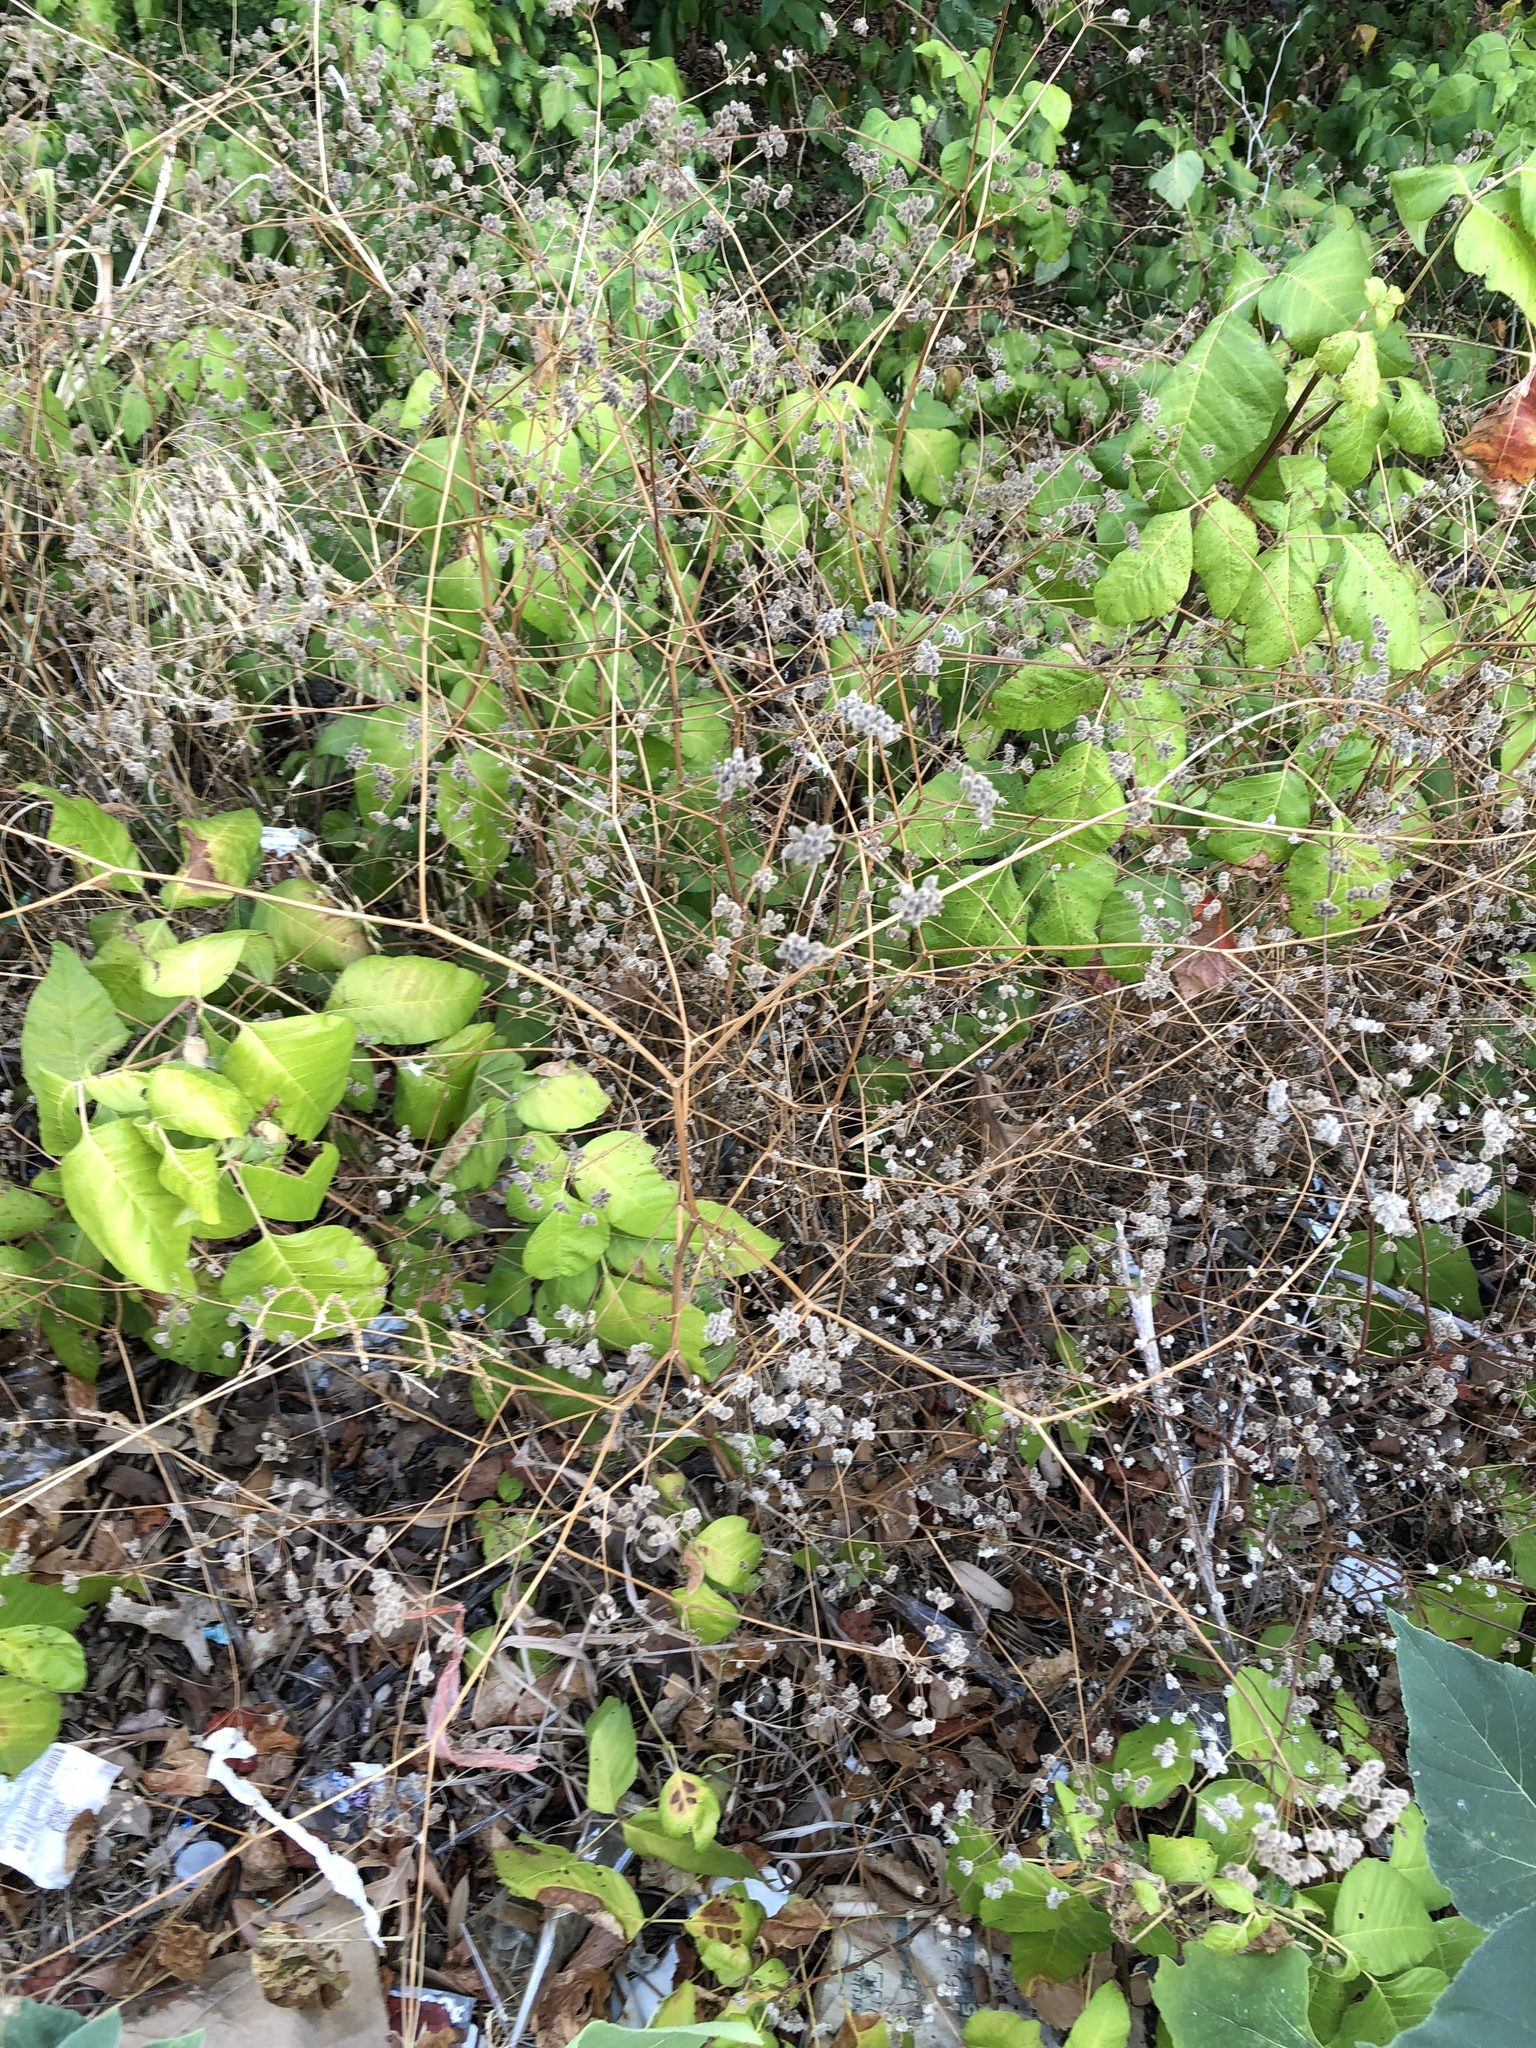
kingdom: Plantae
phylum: Tracheophyta
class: Magnoliopsida
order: Apiales
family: Apiaceae
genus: Torilis
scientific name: Torilis arvensis
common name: Spreading hedge-parsley
